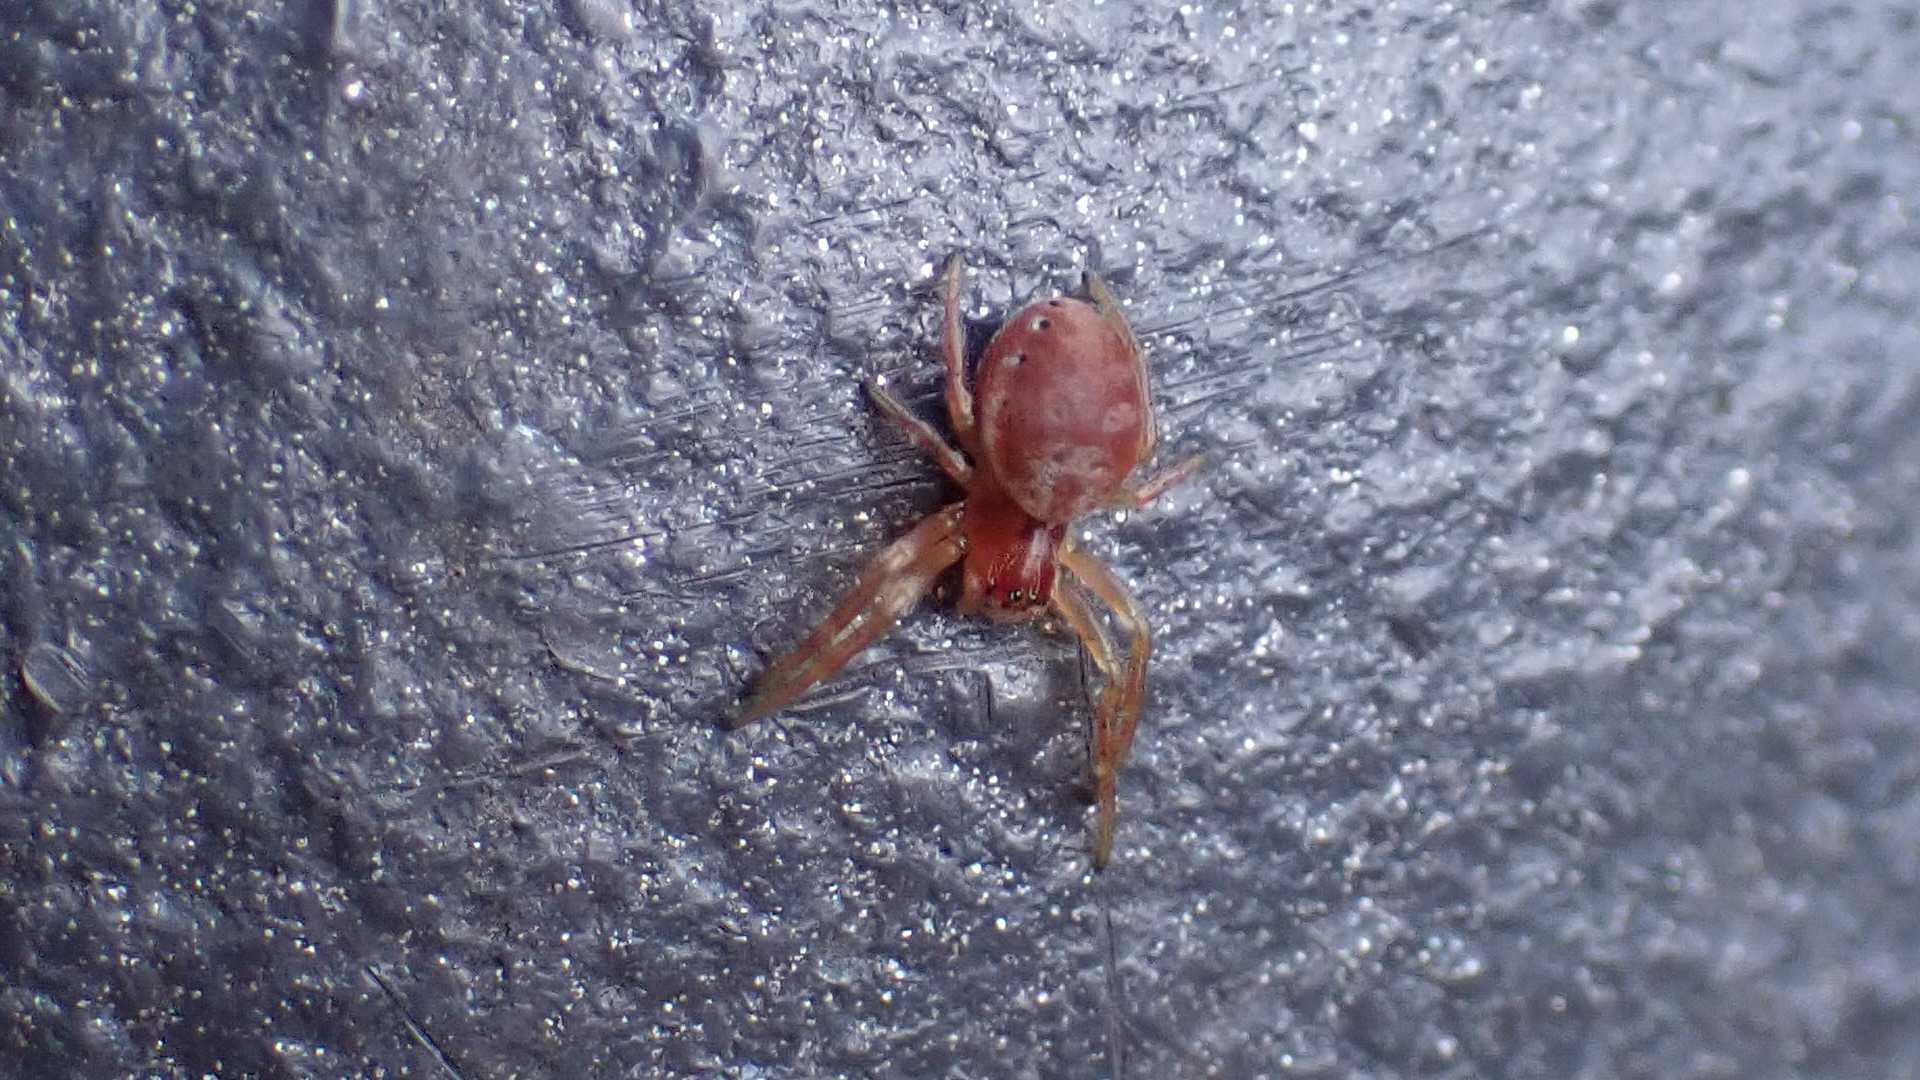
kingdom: Animalia
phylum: Arthropoda
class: Arachnida
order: Araneae
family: Araneidae
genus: Araniella
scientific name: Araniella
